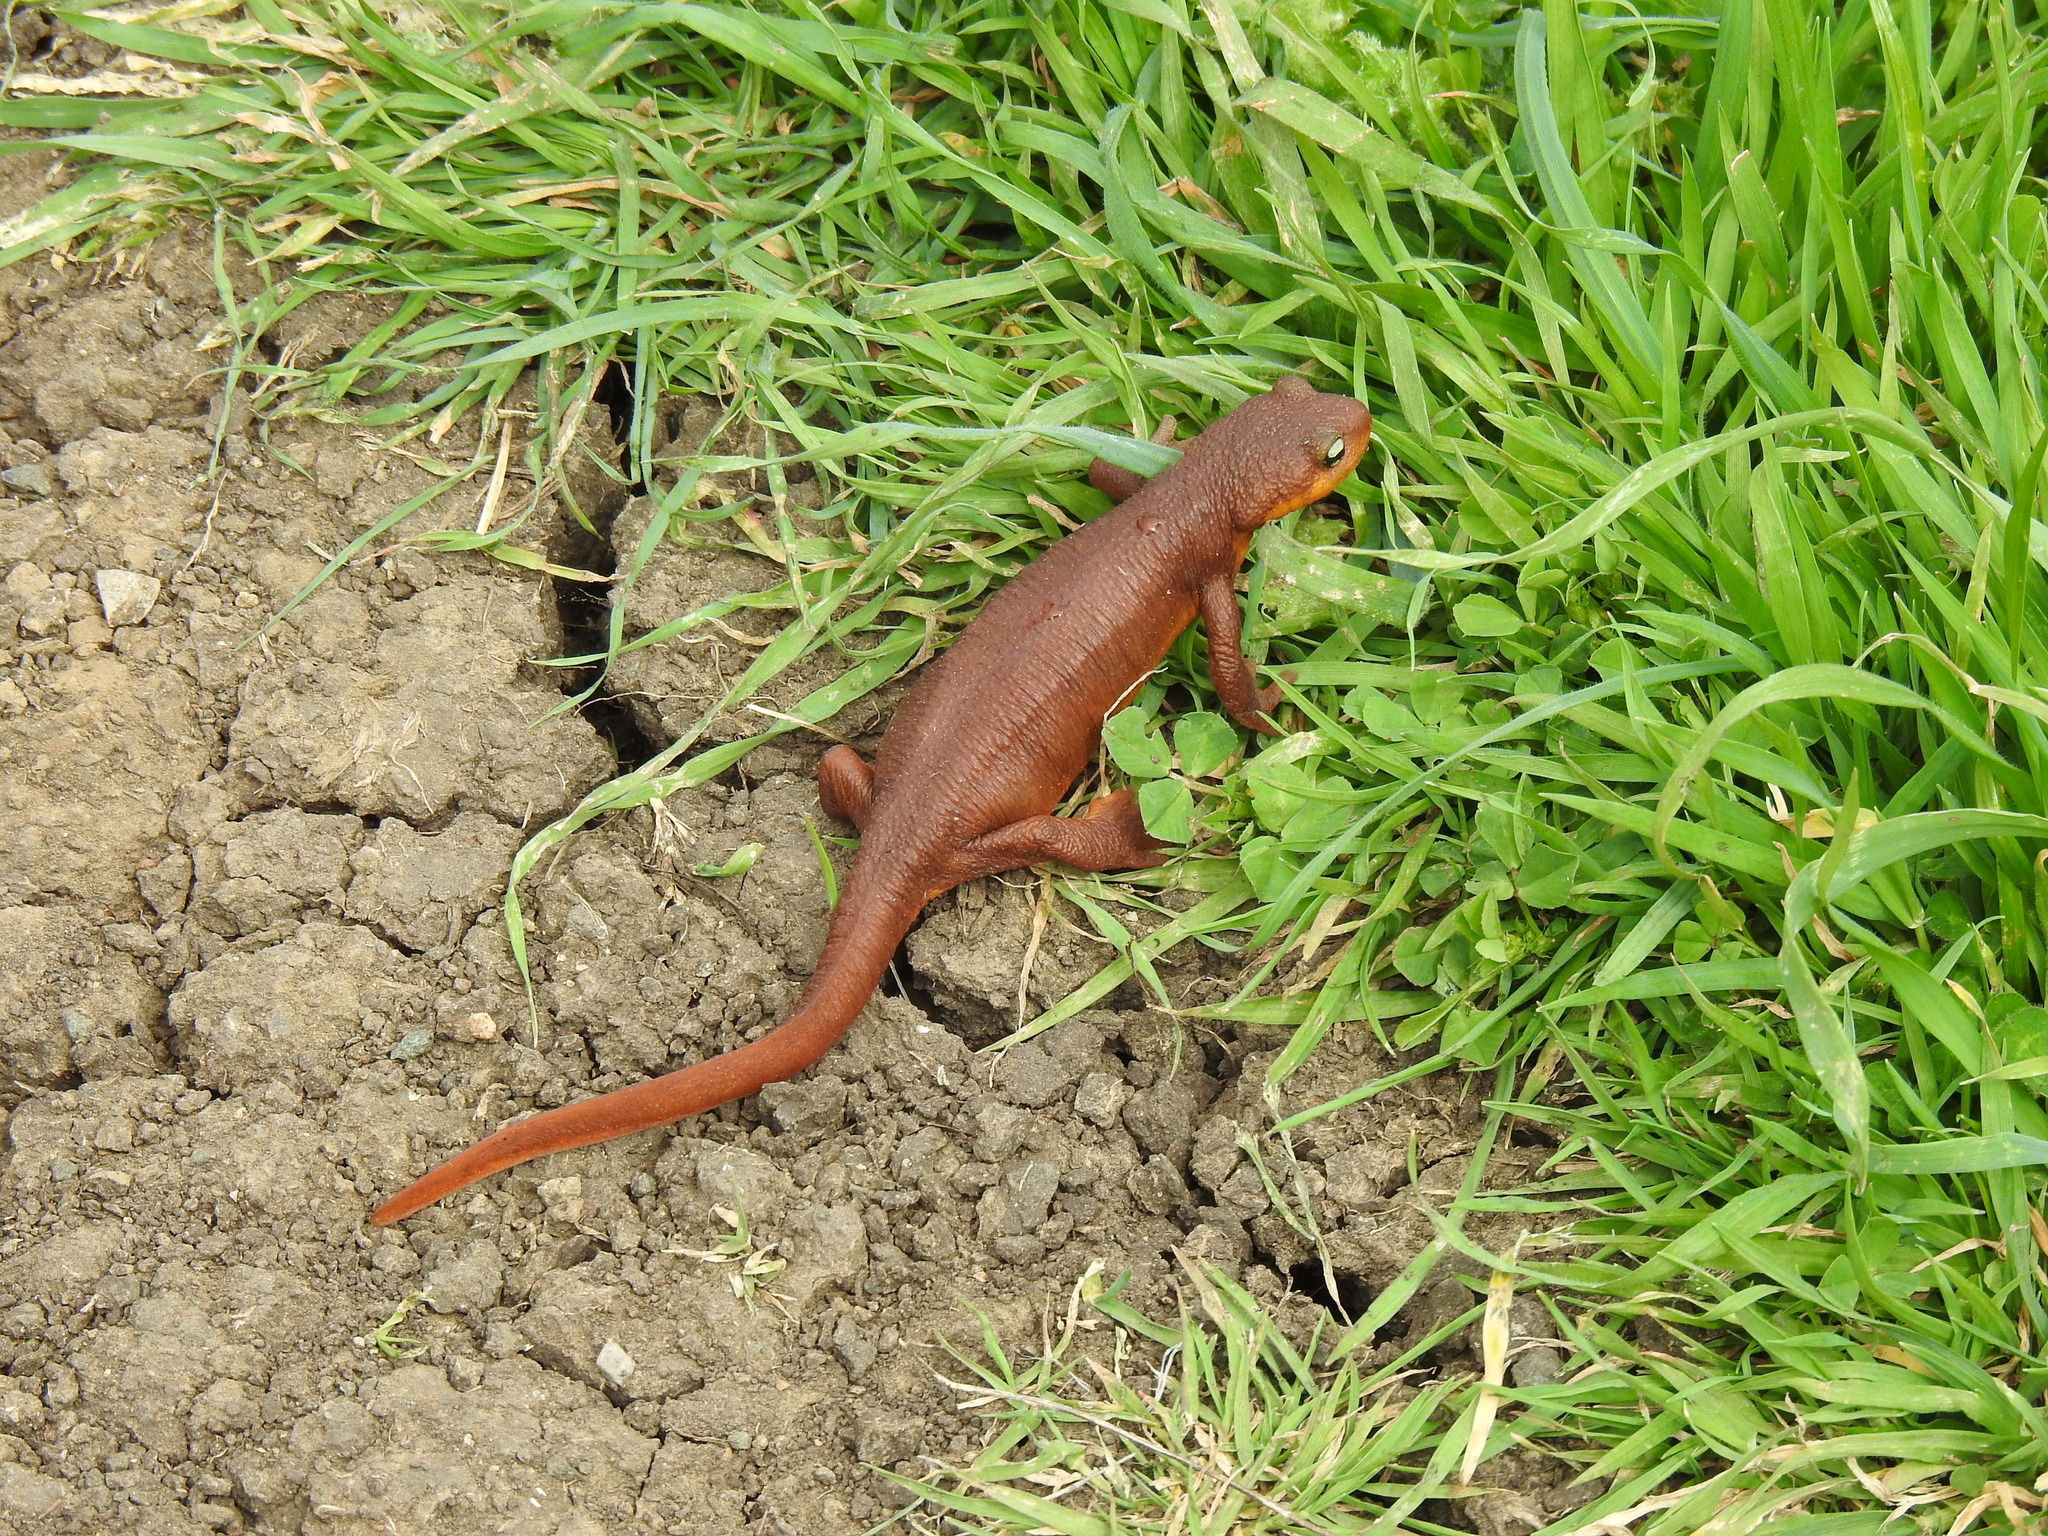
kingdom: Animalia
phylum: Chordata
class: Amphibia
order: Caudata
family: Salamandridae
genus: Taricha
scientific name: Taricha torosa
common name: California newt
